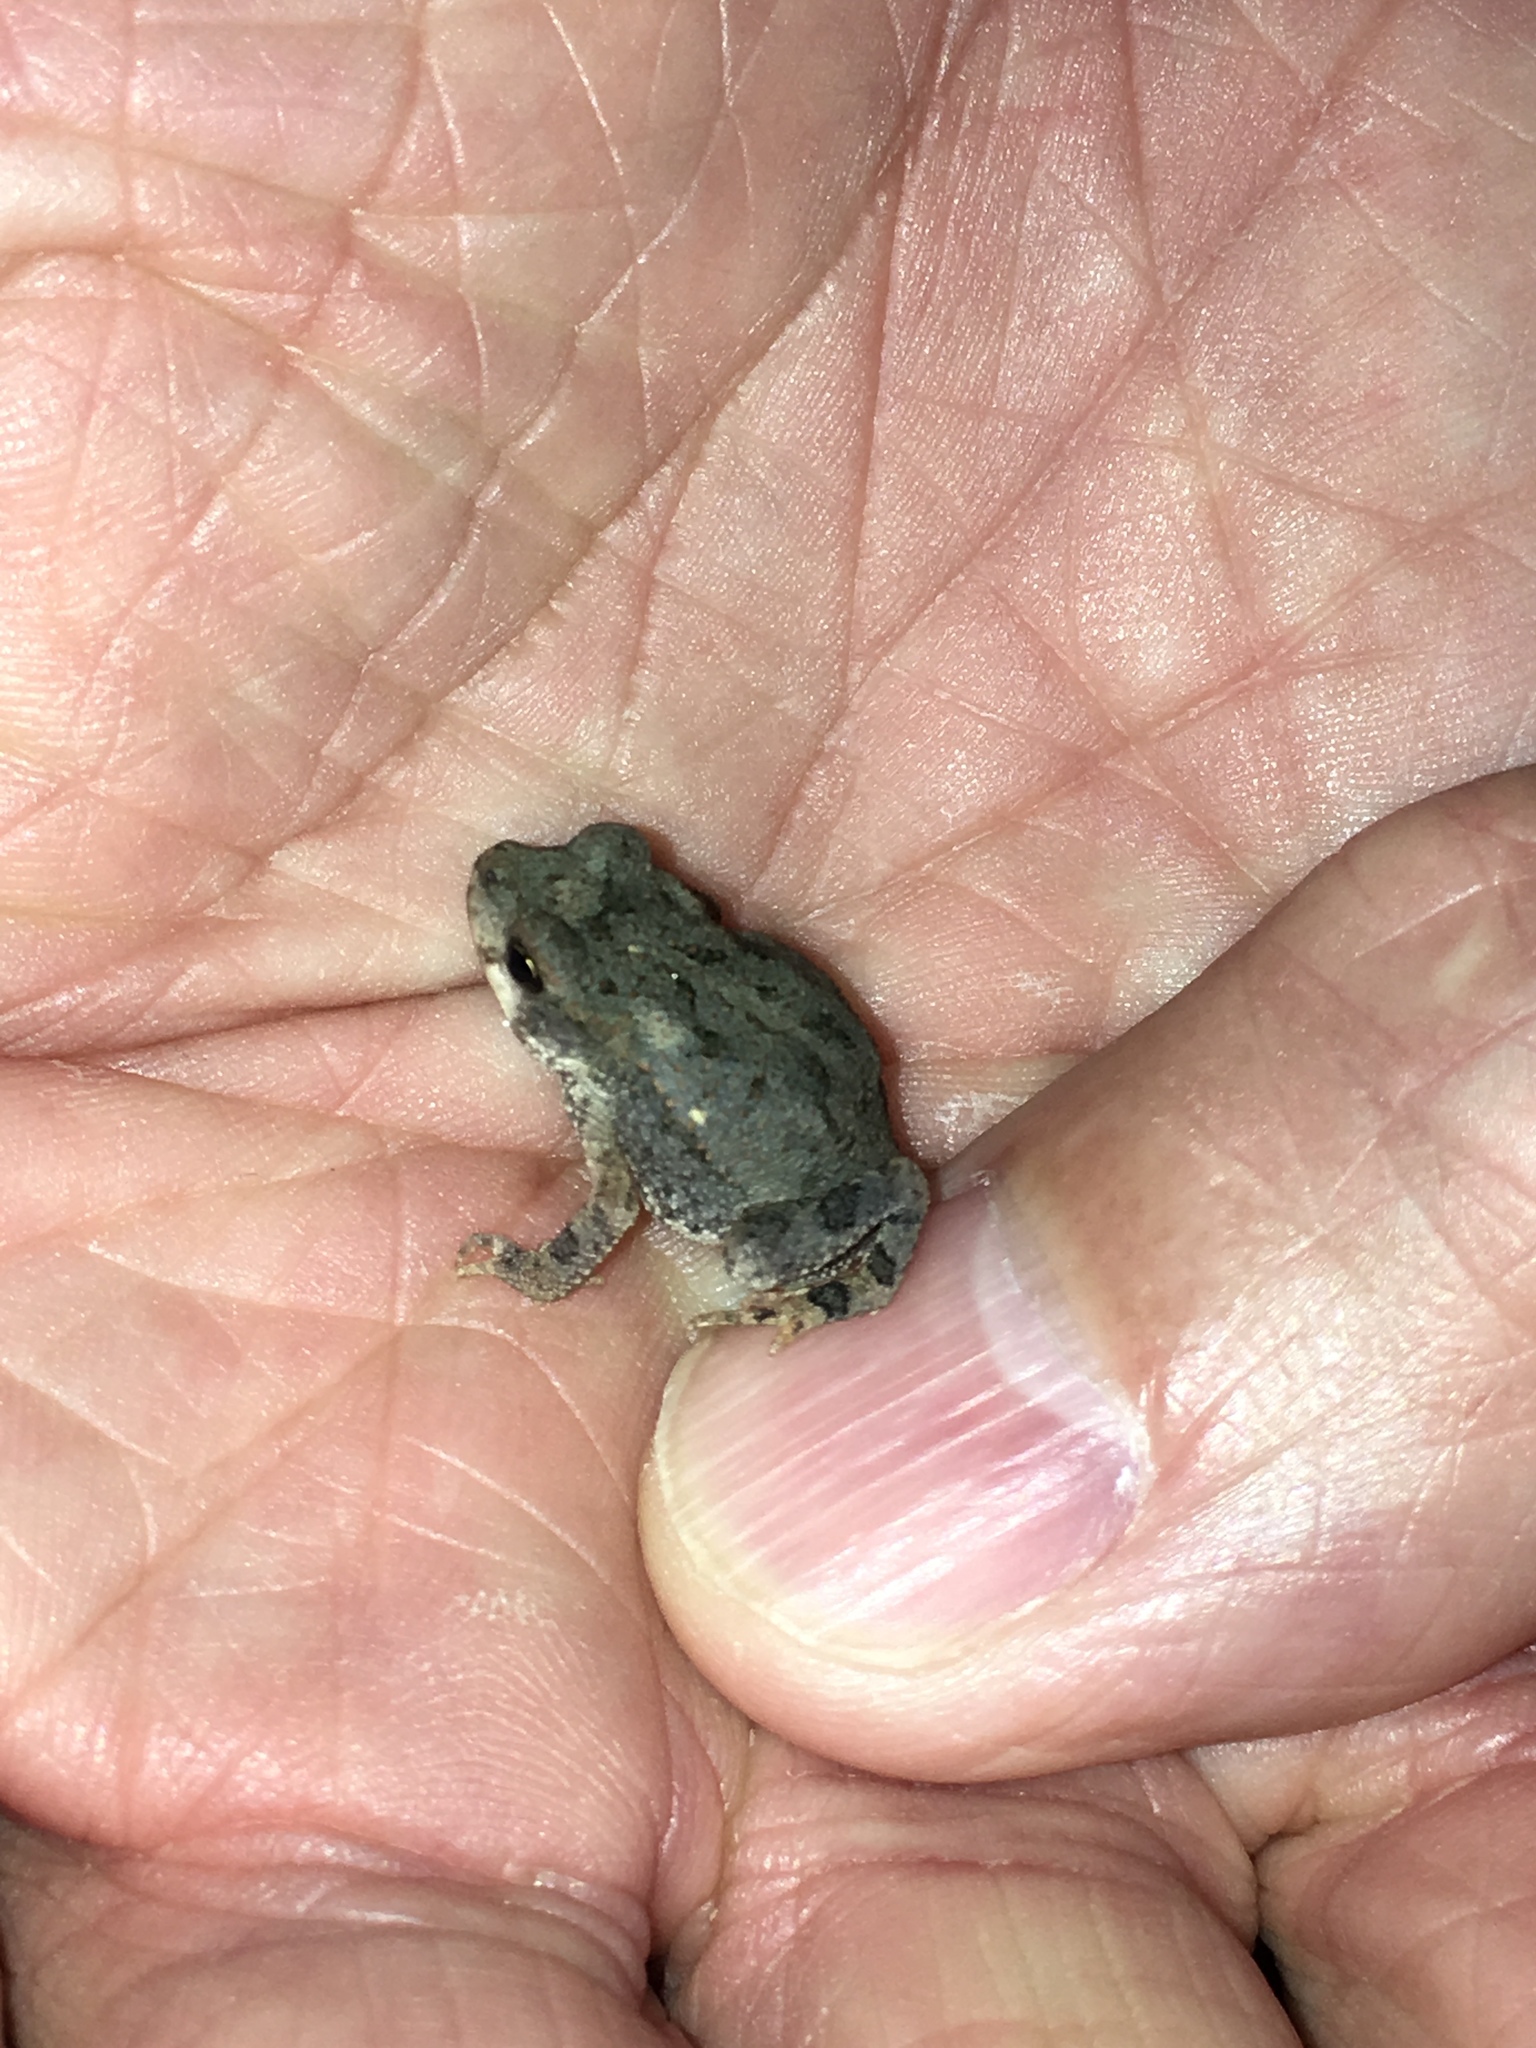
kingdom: Animalia
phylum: Chordata
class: Amphibia
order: Anura
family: Bufonidae
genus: Incilius
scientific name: Incilius nebulifer
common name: Gulf coast toad
